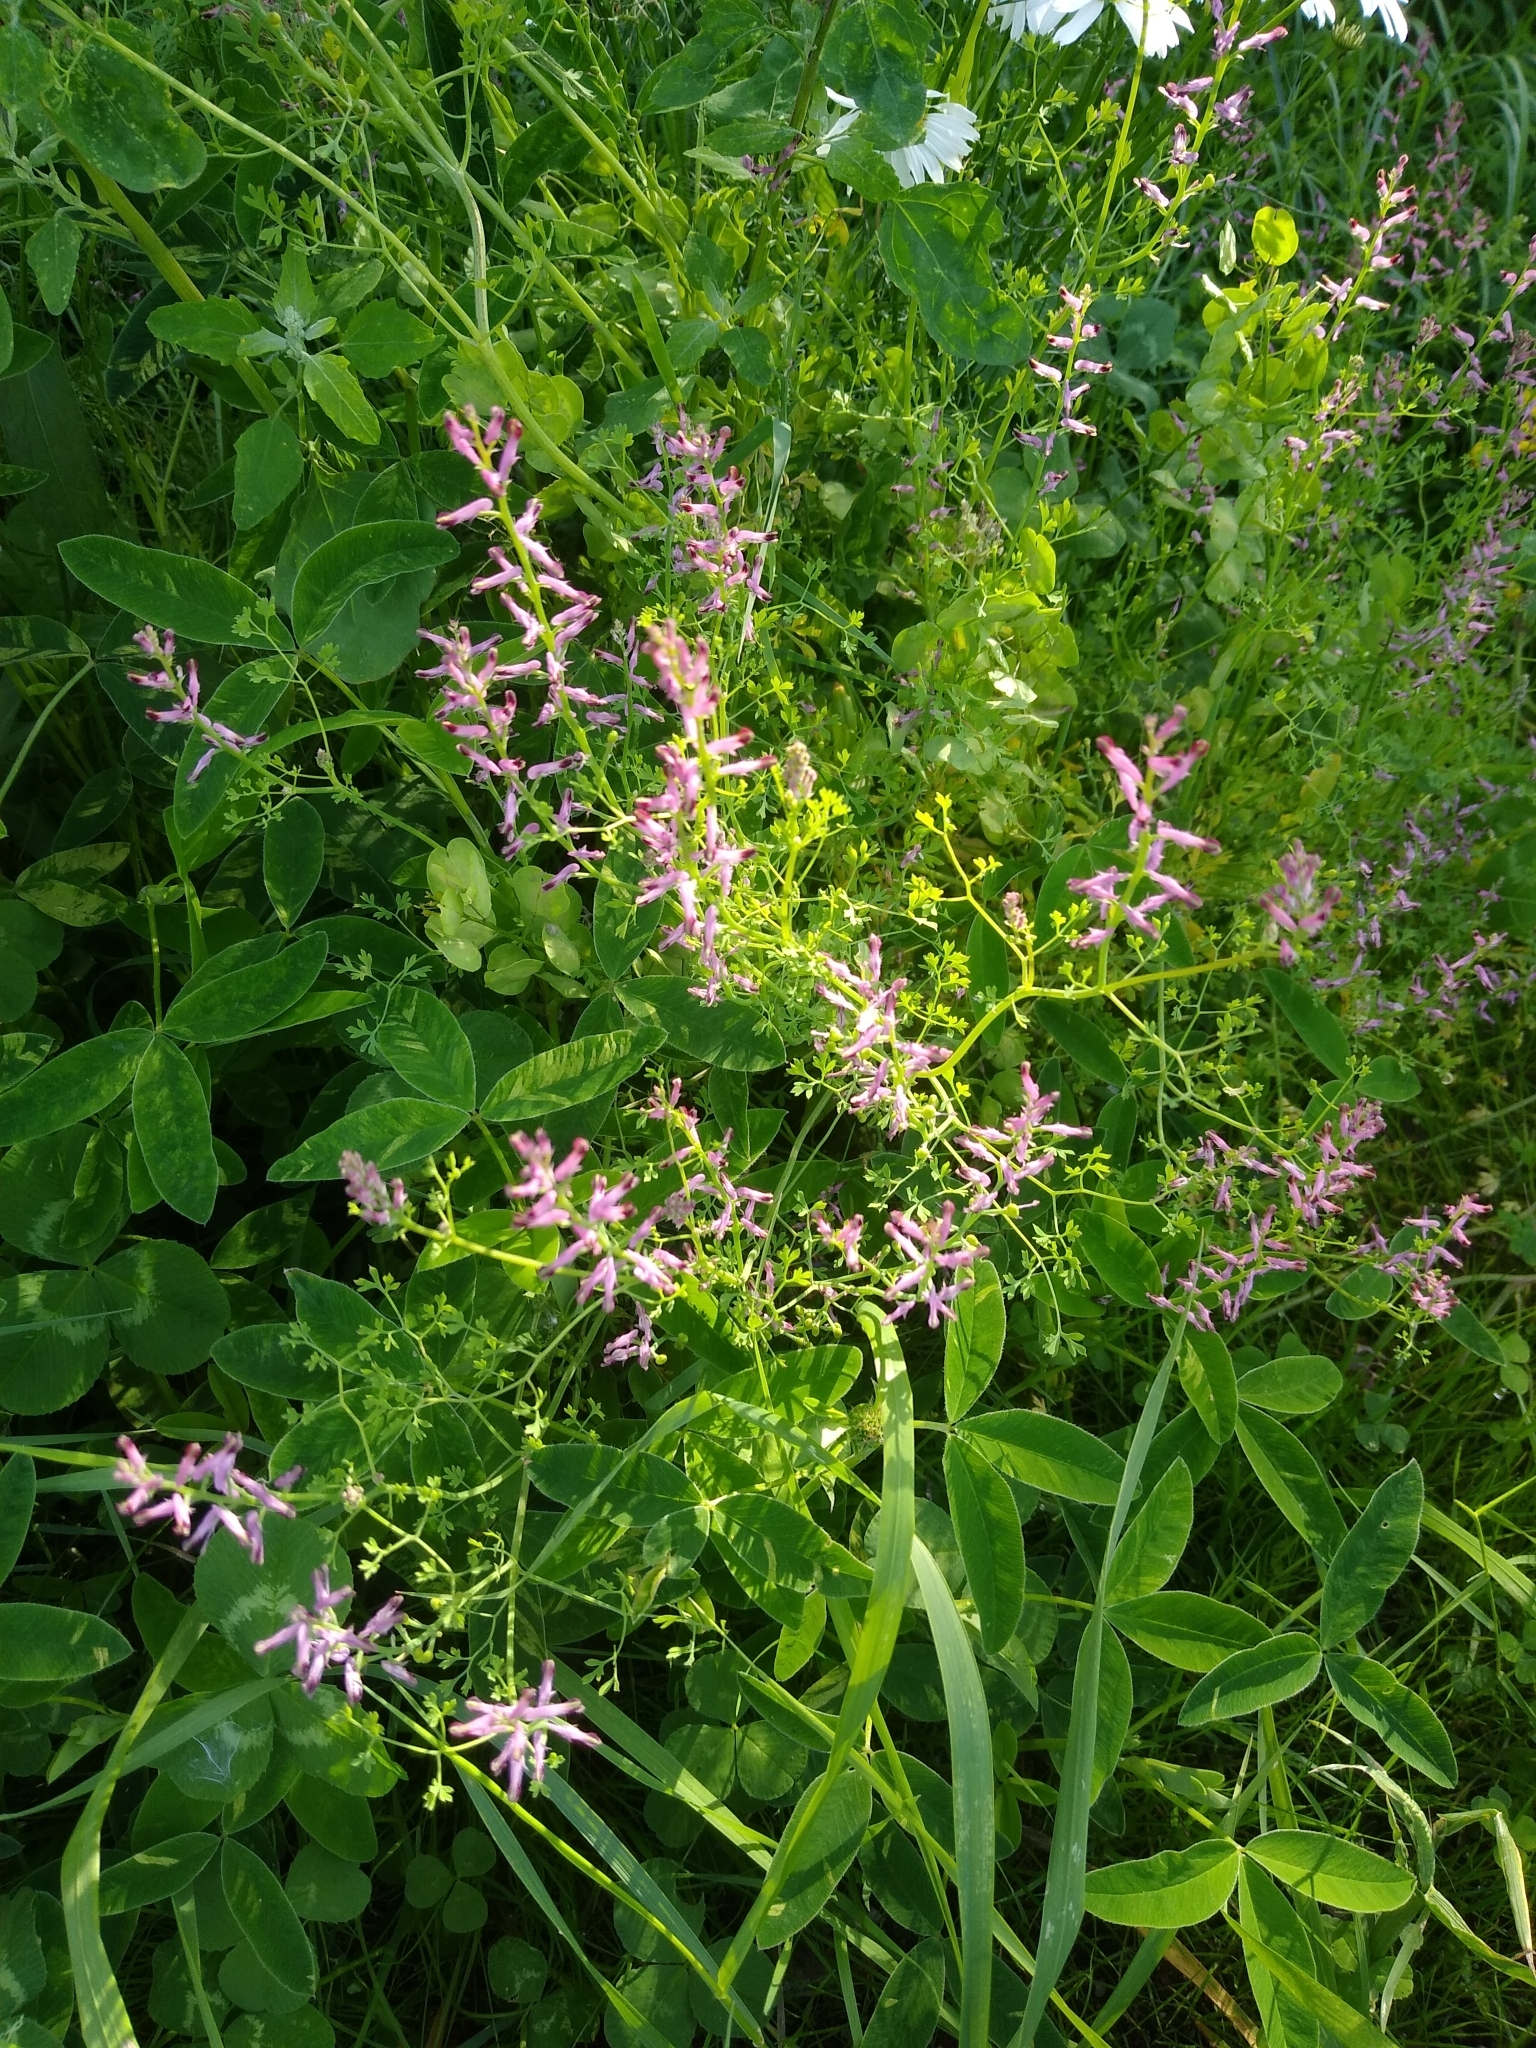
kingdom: Plantae
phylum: Tracheophyta
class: Magnoliopsida
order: Ranunculales
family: Papaveraceae
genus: Fumaria
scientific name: Fumaria officinalis
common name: Common fumitory
